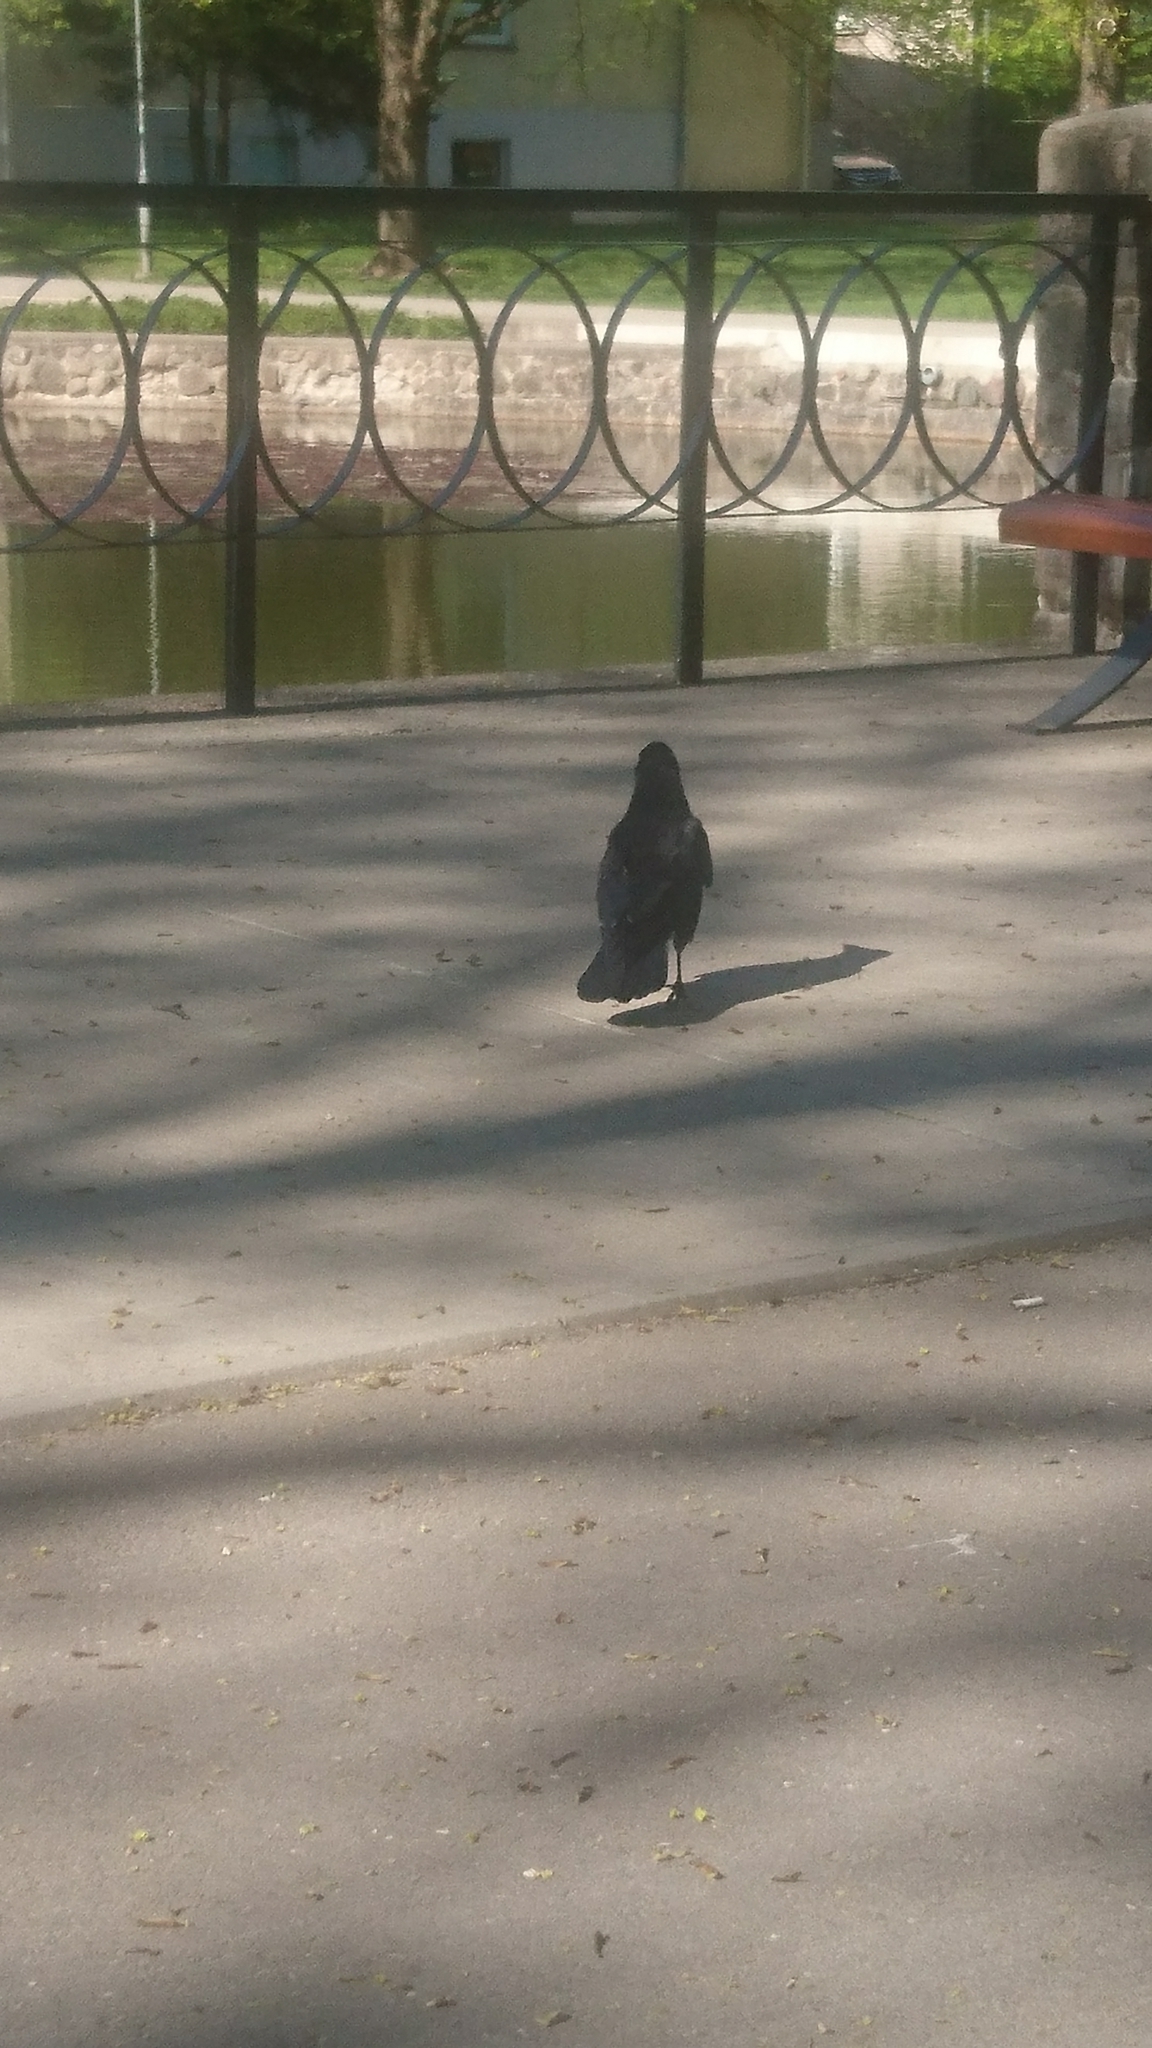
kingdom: Animalia
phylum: Chordata
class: Aves
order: Passeriformes
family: Corvidae
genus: Corvus
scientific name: Corvus frugilegus
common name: Rook
